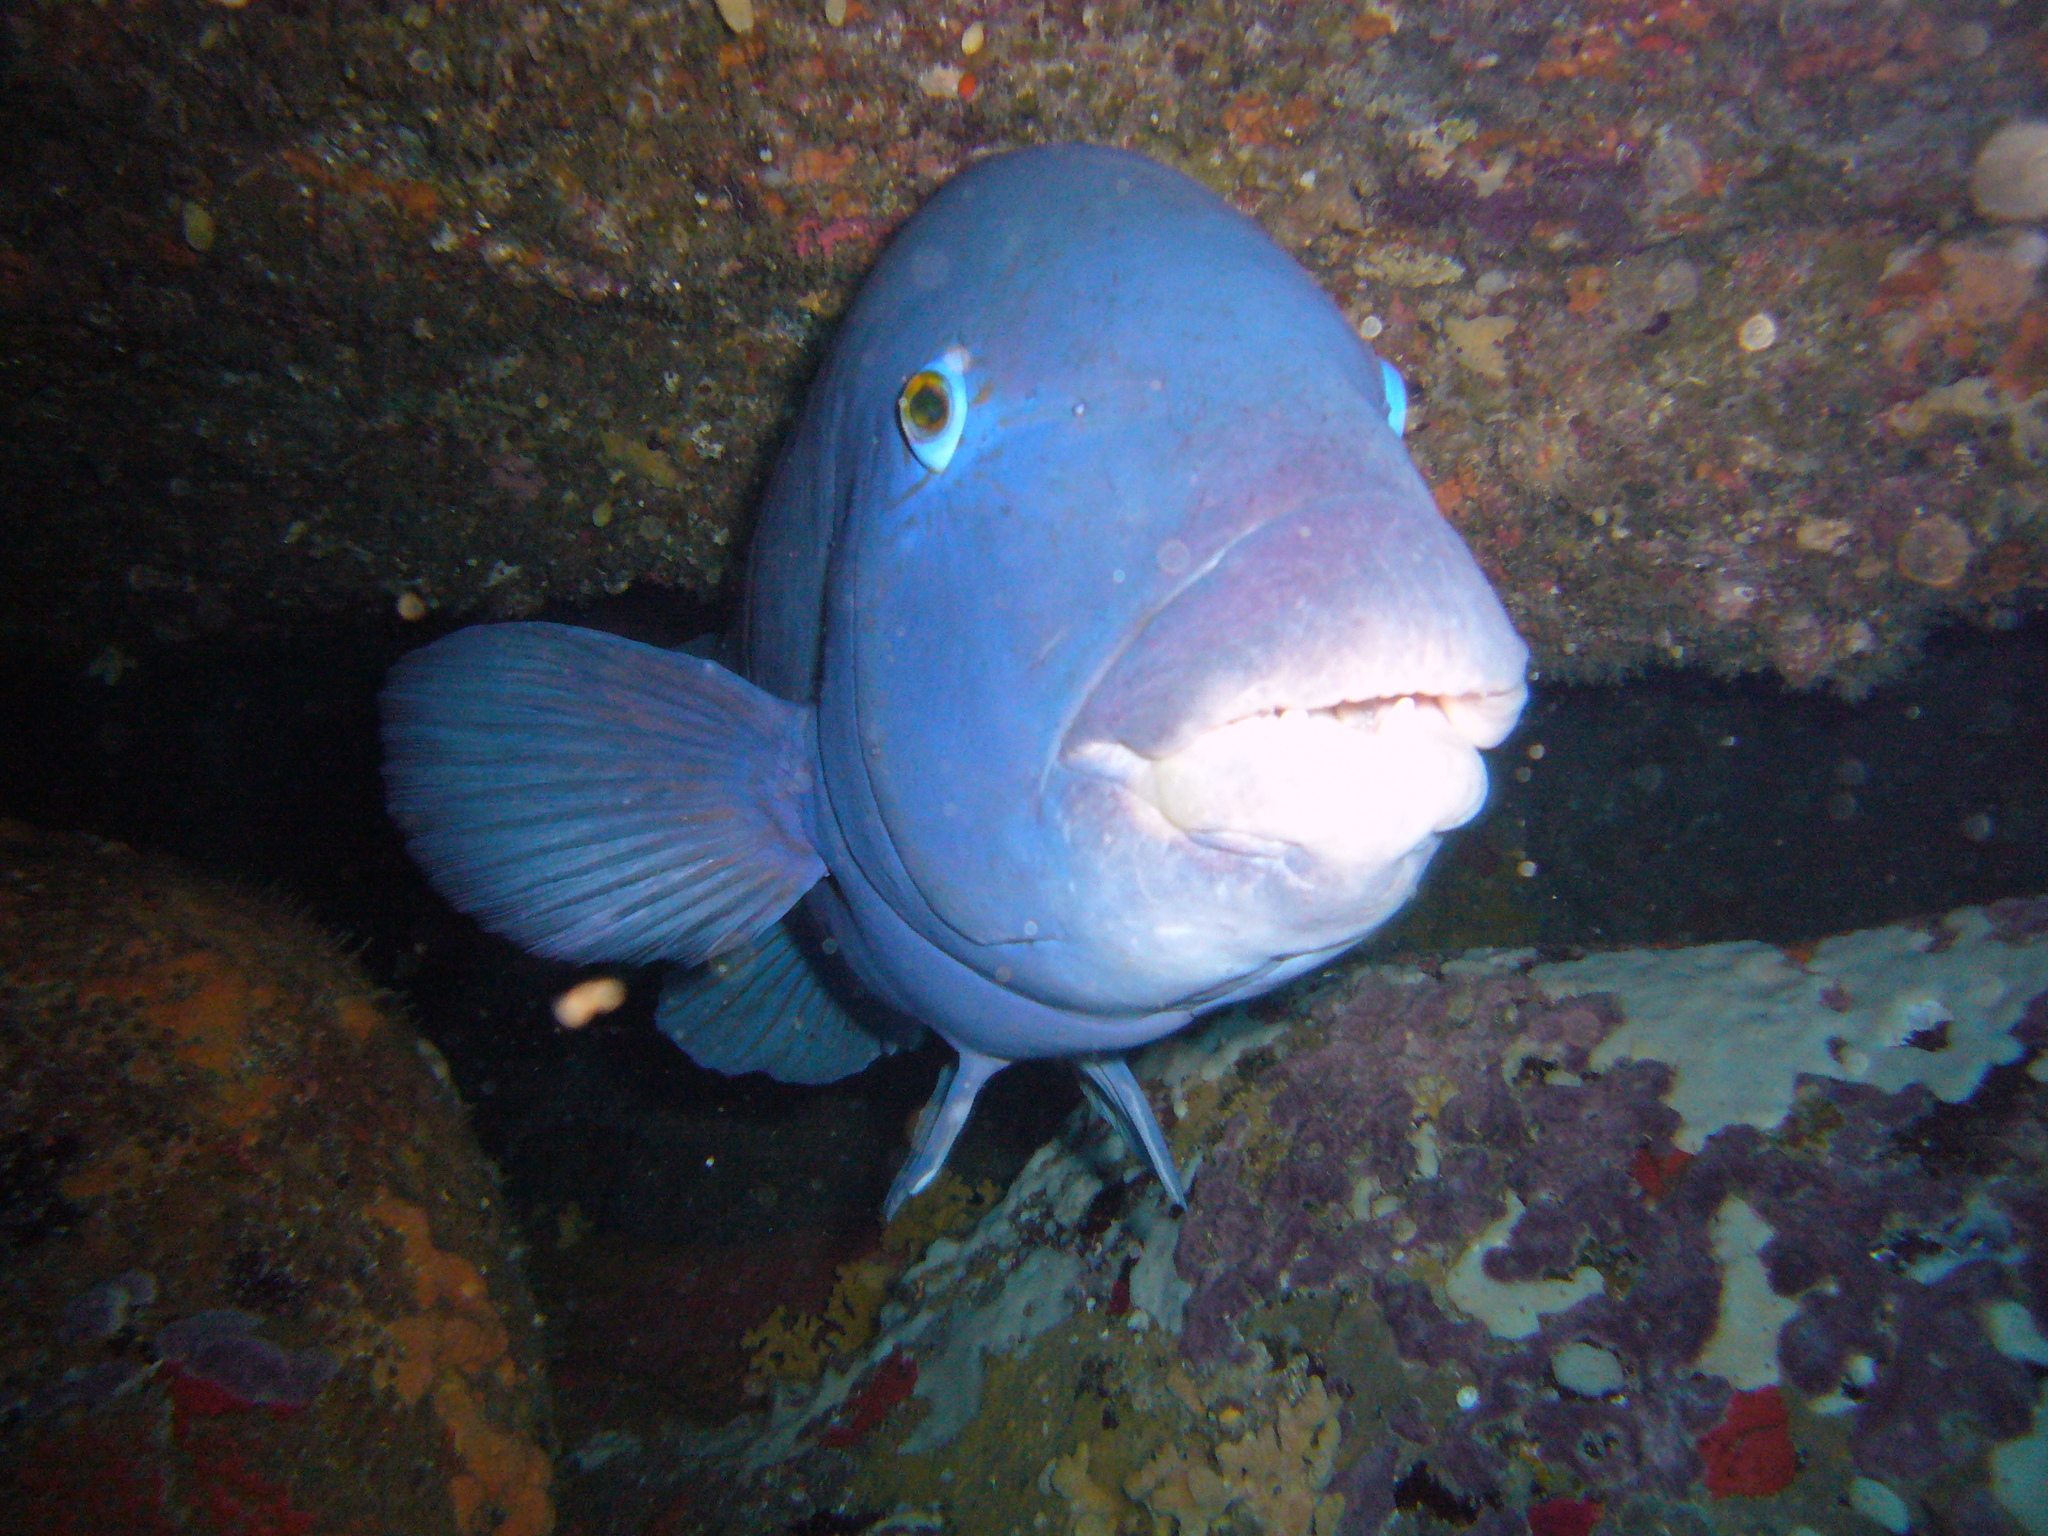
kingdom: Animalia
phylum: Chordata
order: Perciformes
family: Labridae
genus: Achoerodus
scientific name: Achoerodus viridis
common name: Brown groper
